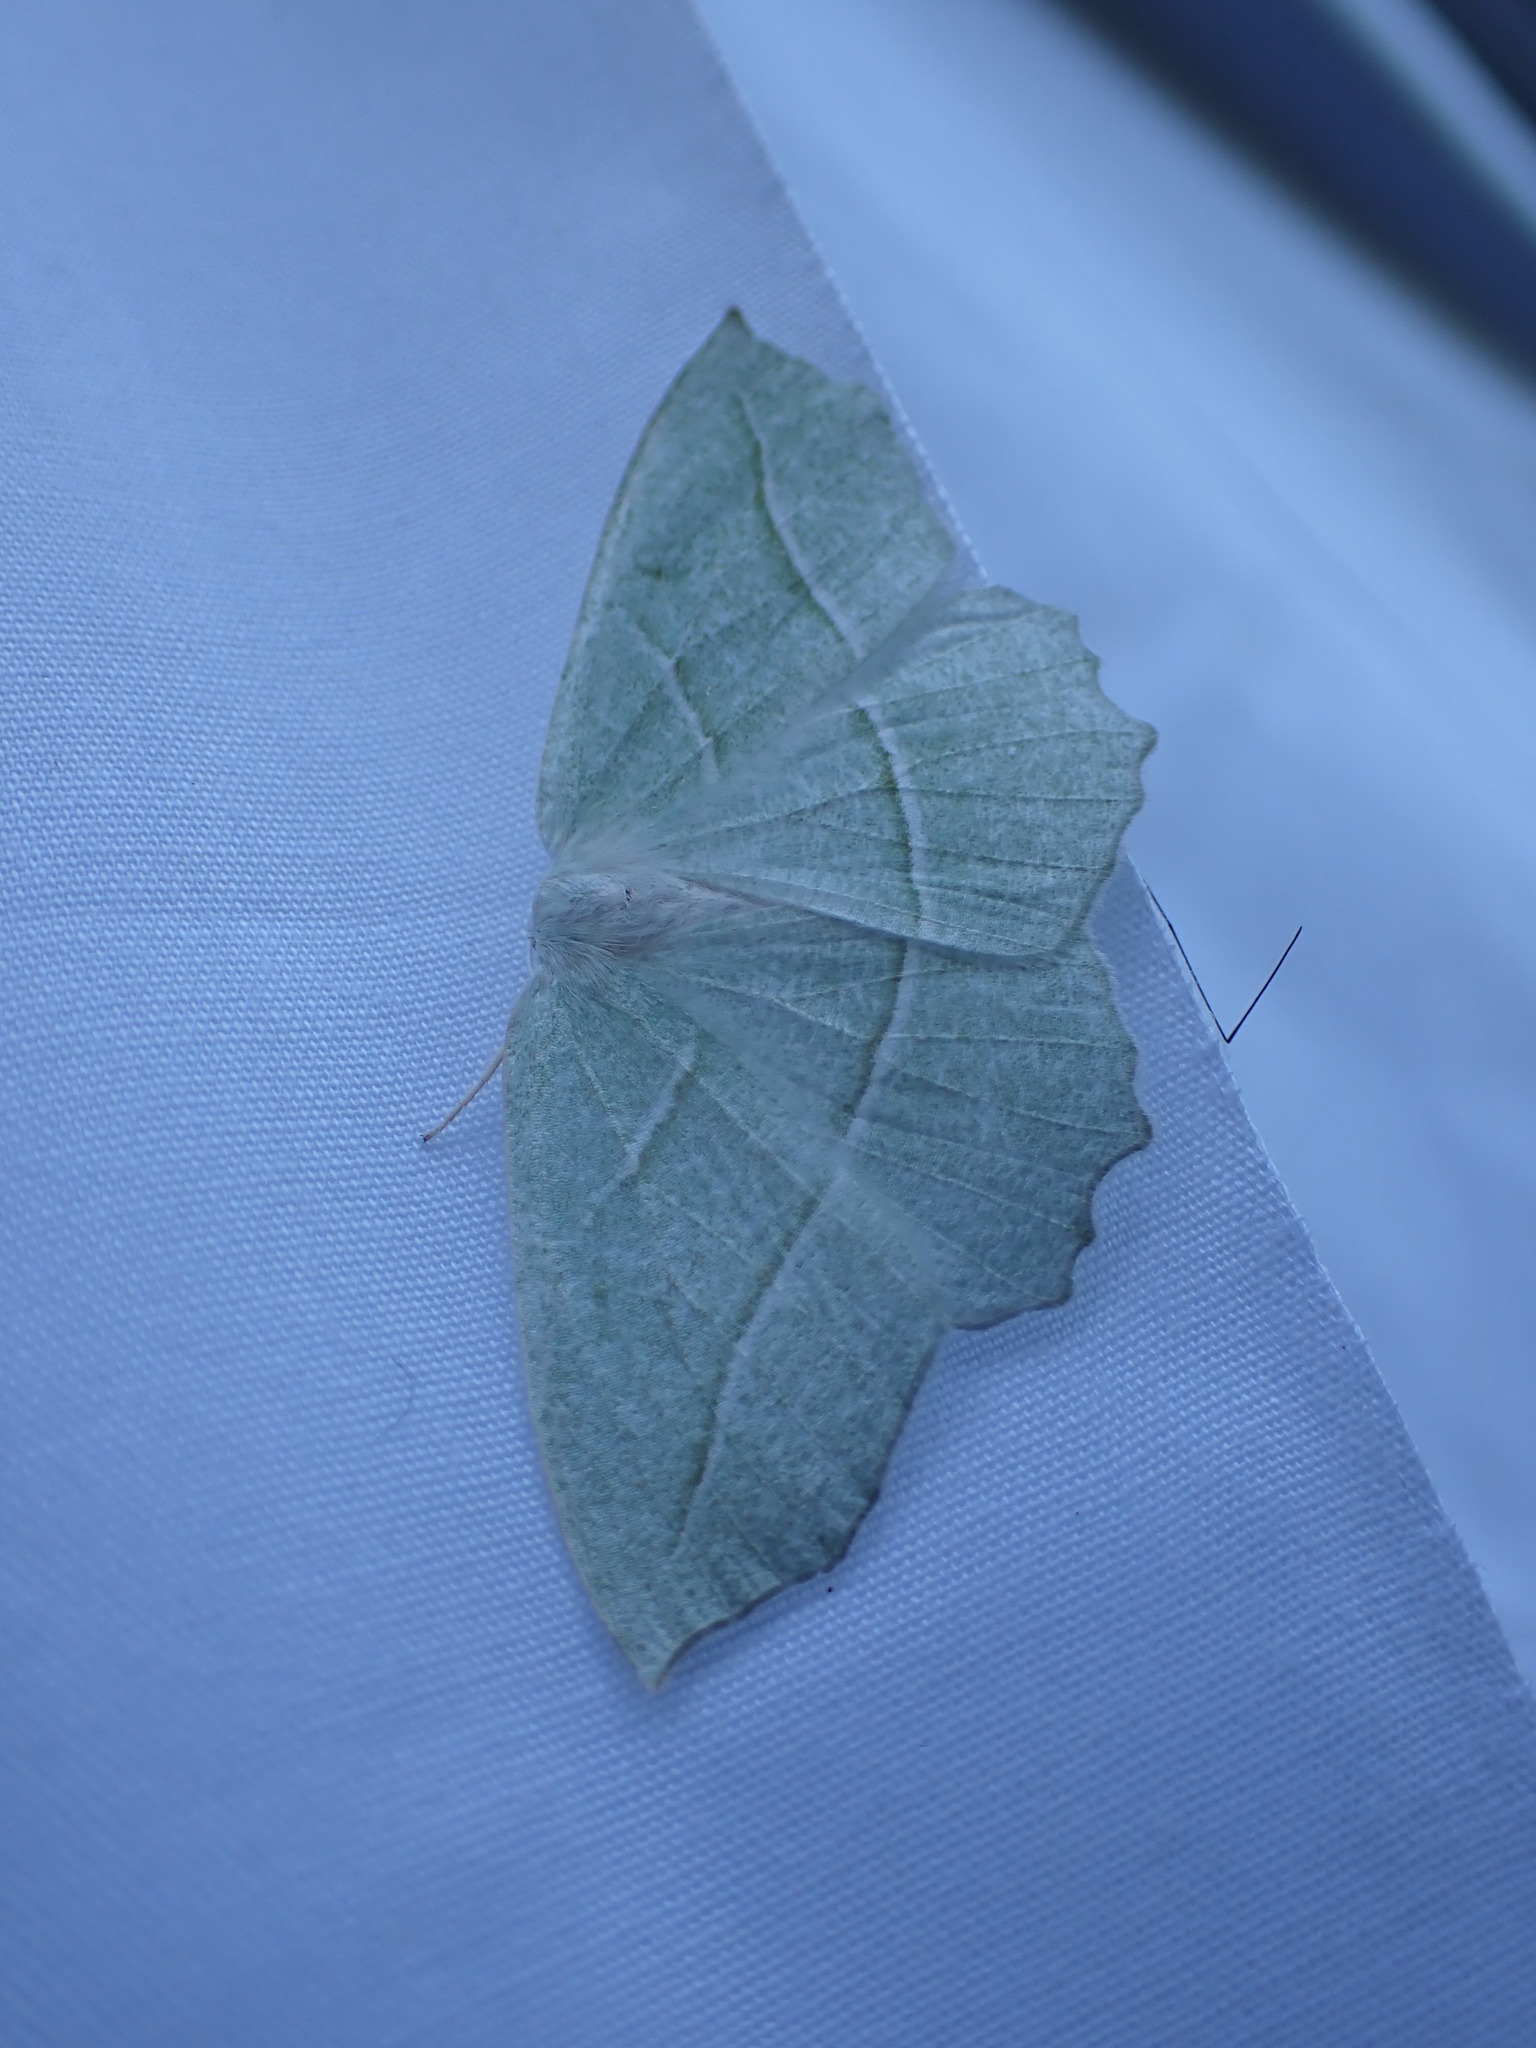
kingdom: Animalia
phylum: Arthropoda
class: Insecta
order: Lepidoptera
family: Geometridae
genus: Campaea
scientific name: Campaea perlata
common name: Fringed looper
